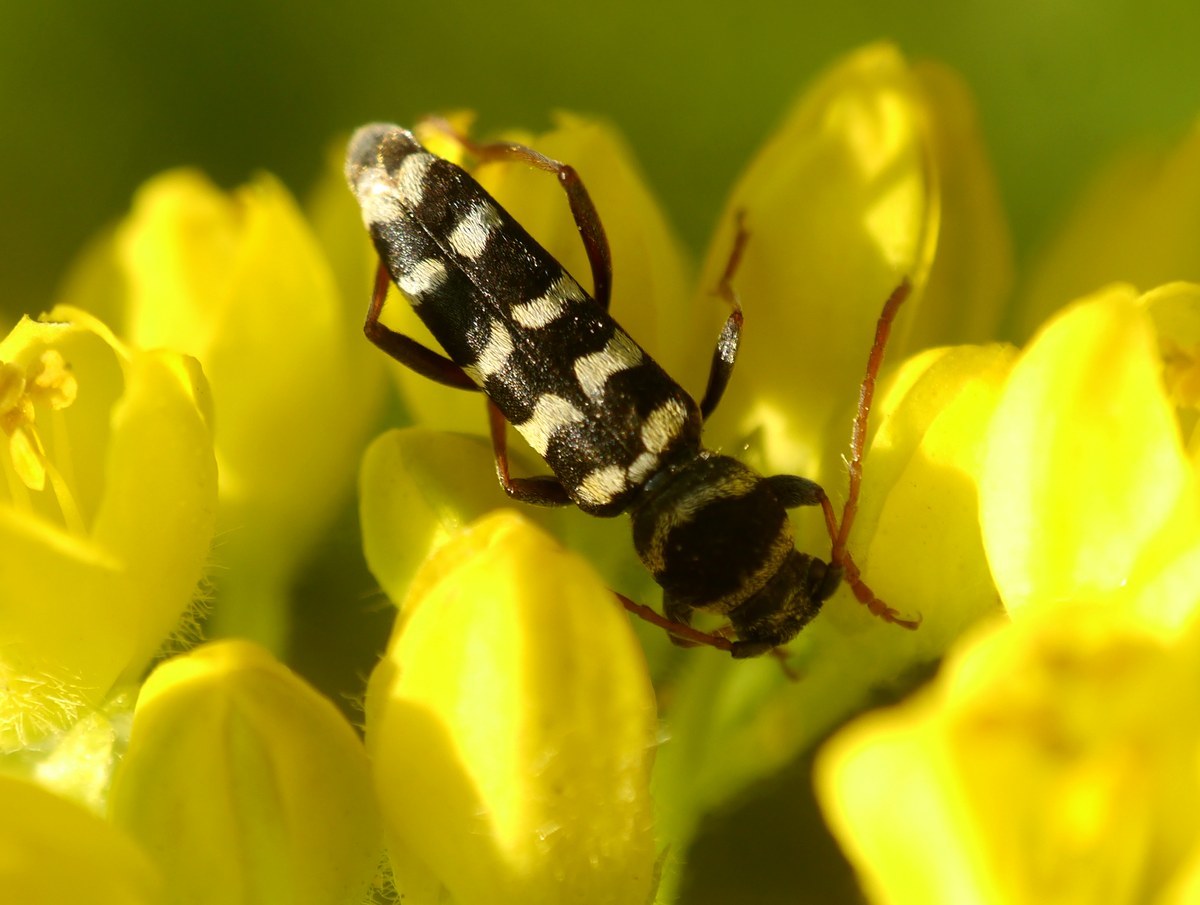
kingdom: Animalia
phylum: Arthropoda
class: Insecta
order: Coleoptera
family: Cerambycidae
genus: Plagionotus
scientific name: Plagionotus floralis
